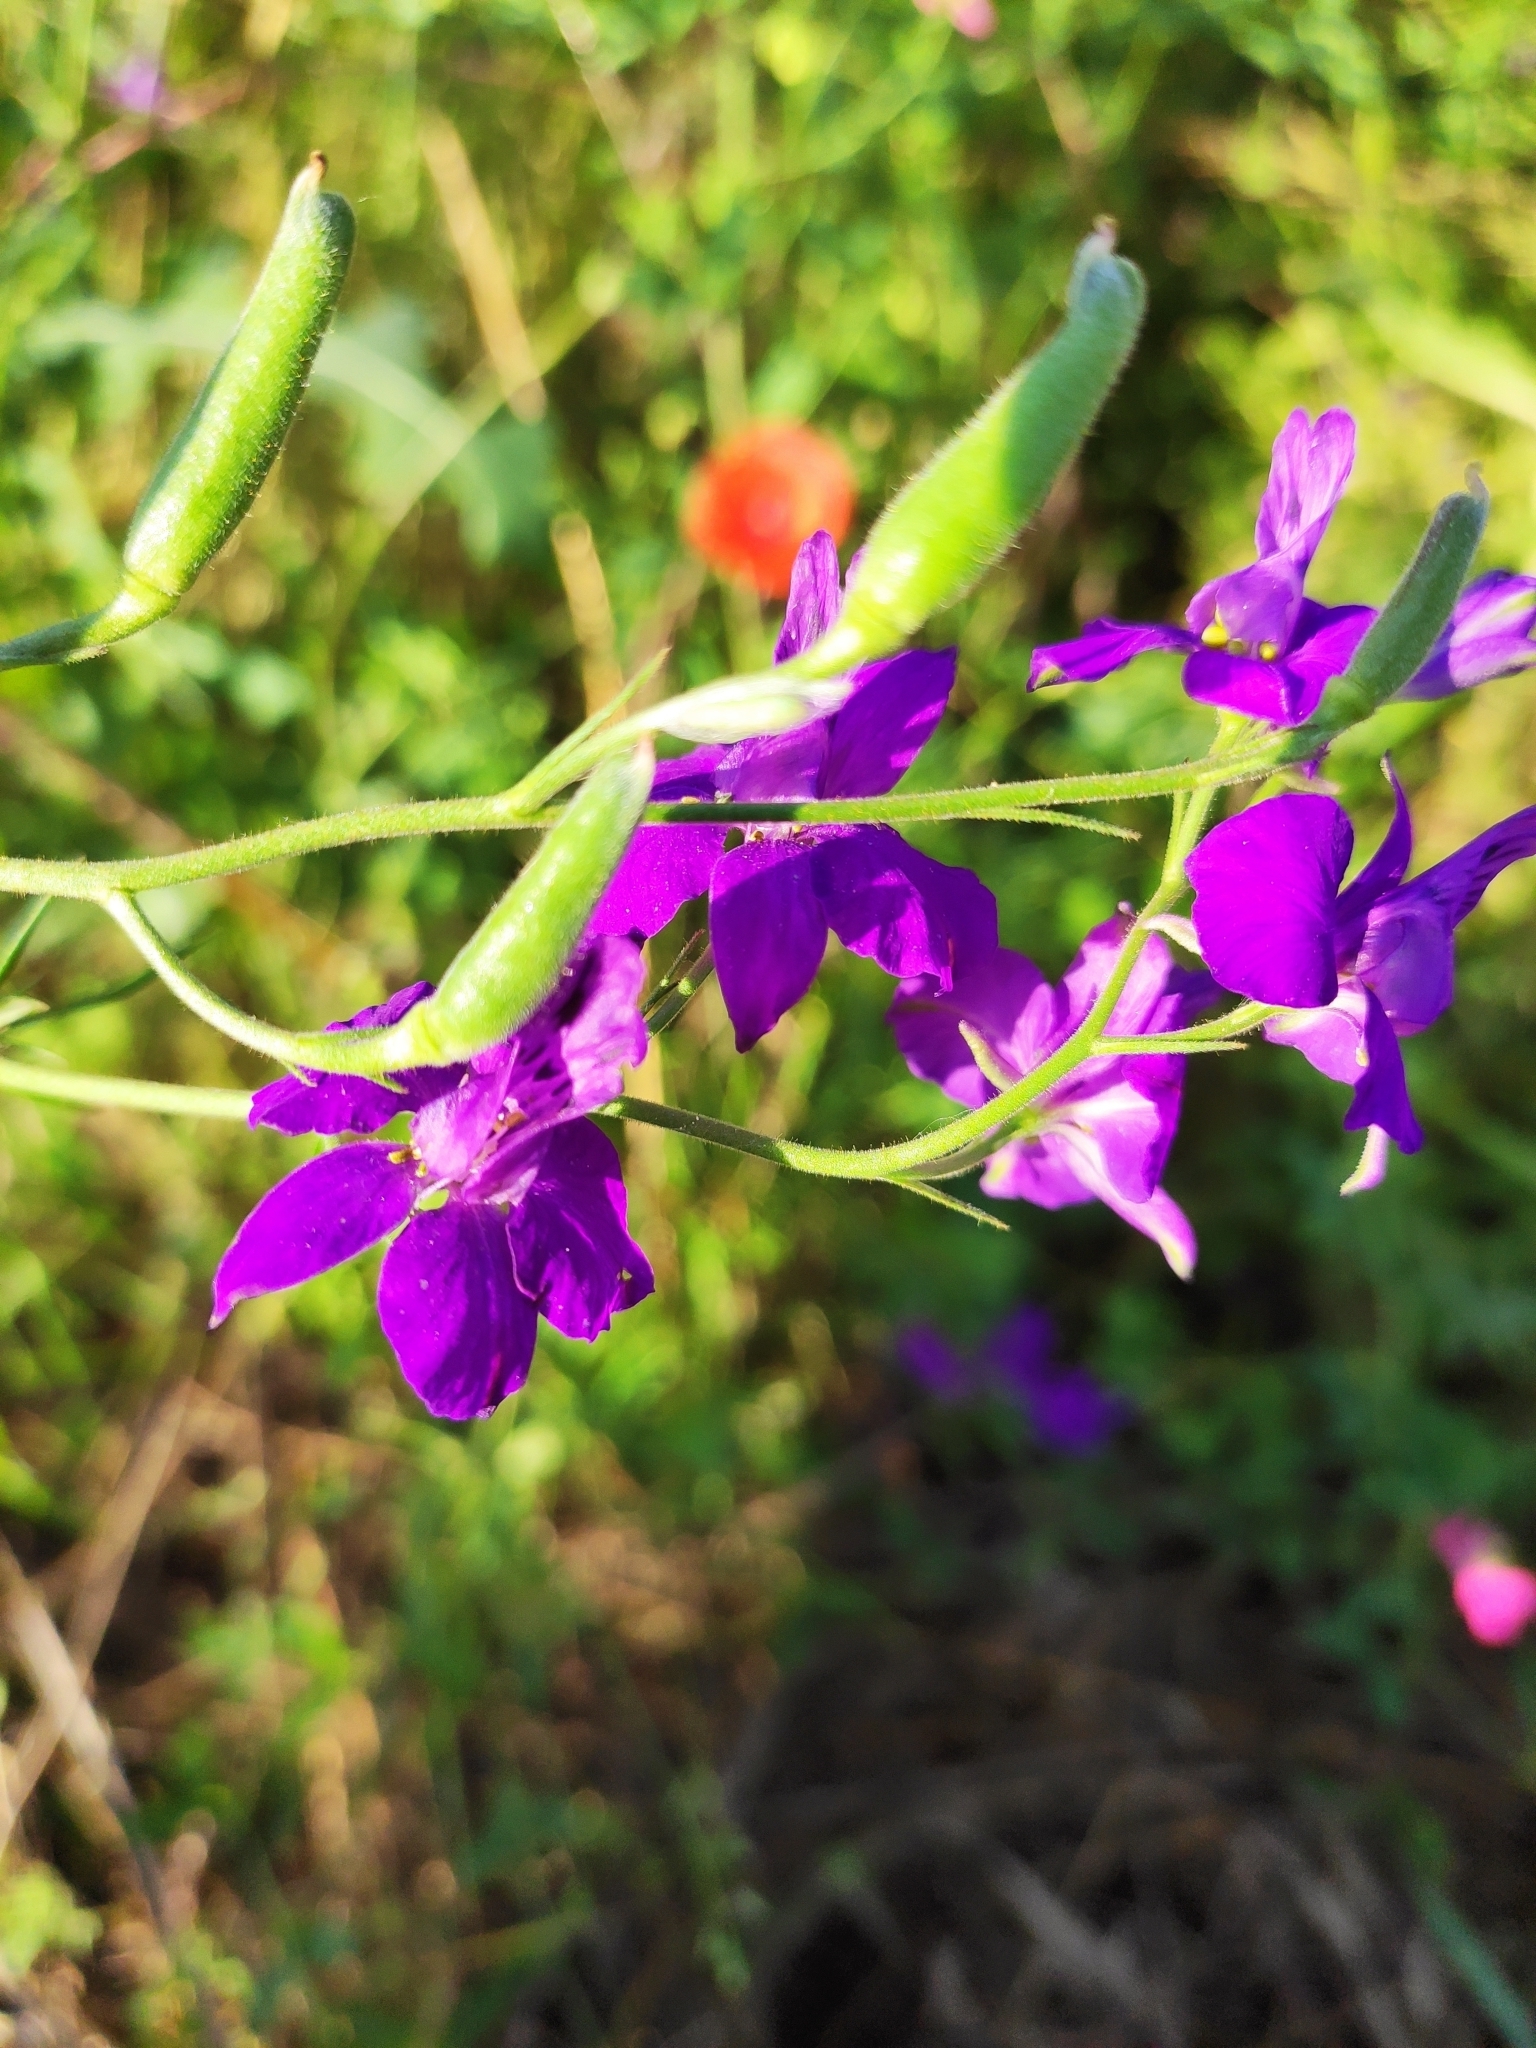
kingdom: Plantae
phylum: Tracheophyta
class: Magnoliopsida
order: Ranunculales
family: Ranunculaceae
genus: Delphinium
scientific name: Delphinium ajacis
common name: Doubtful knight's-spur
